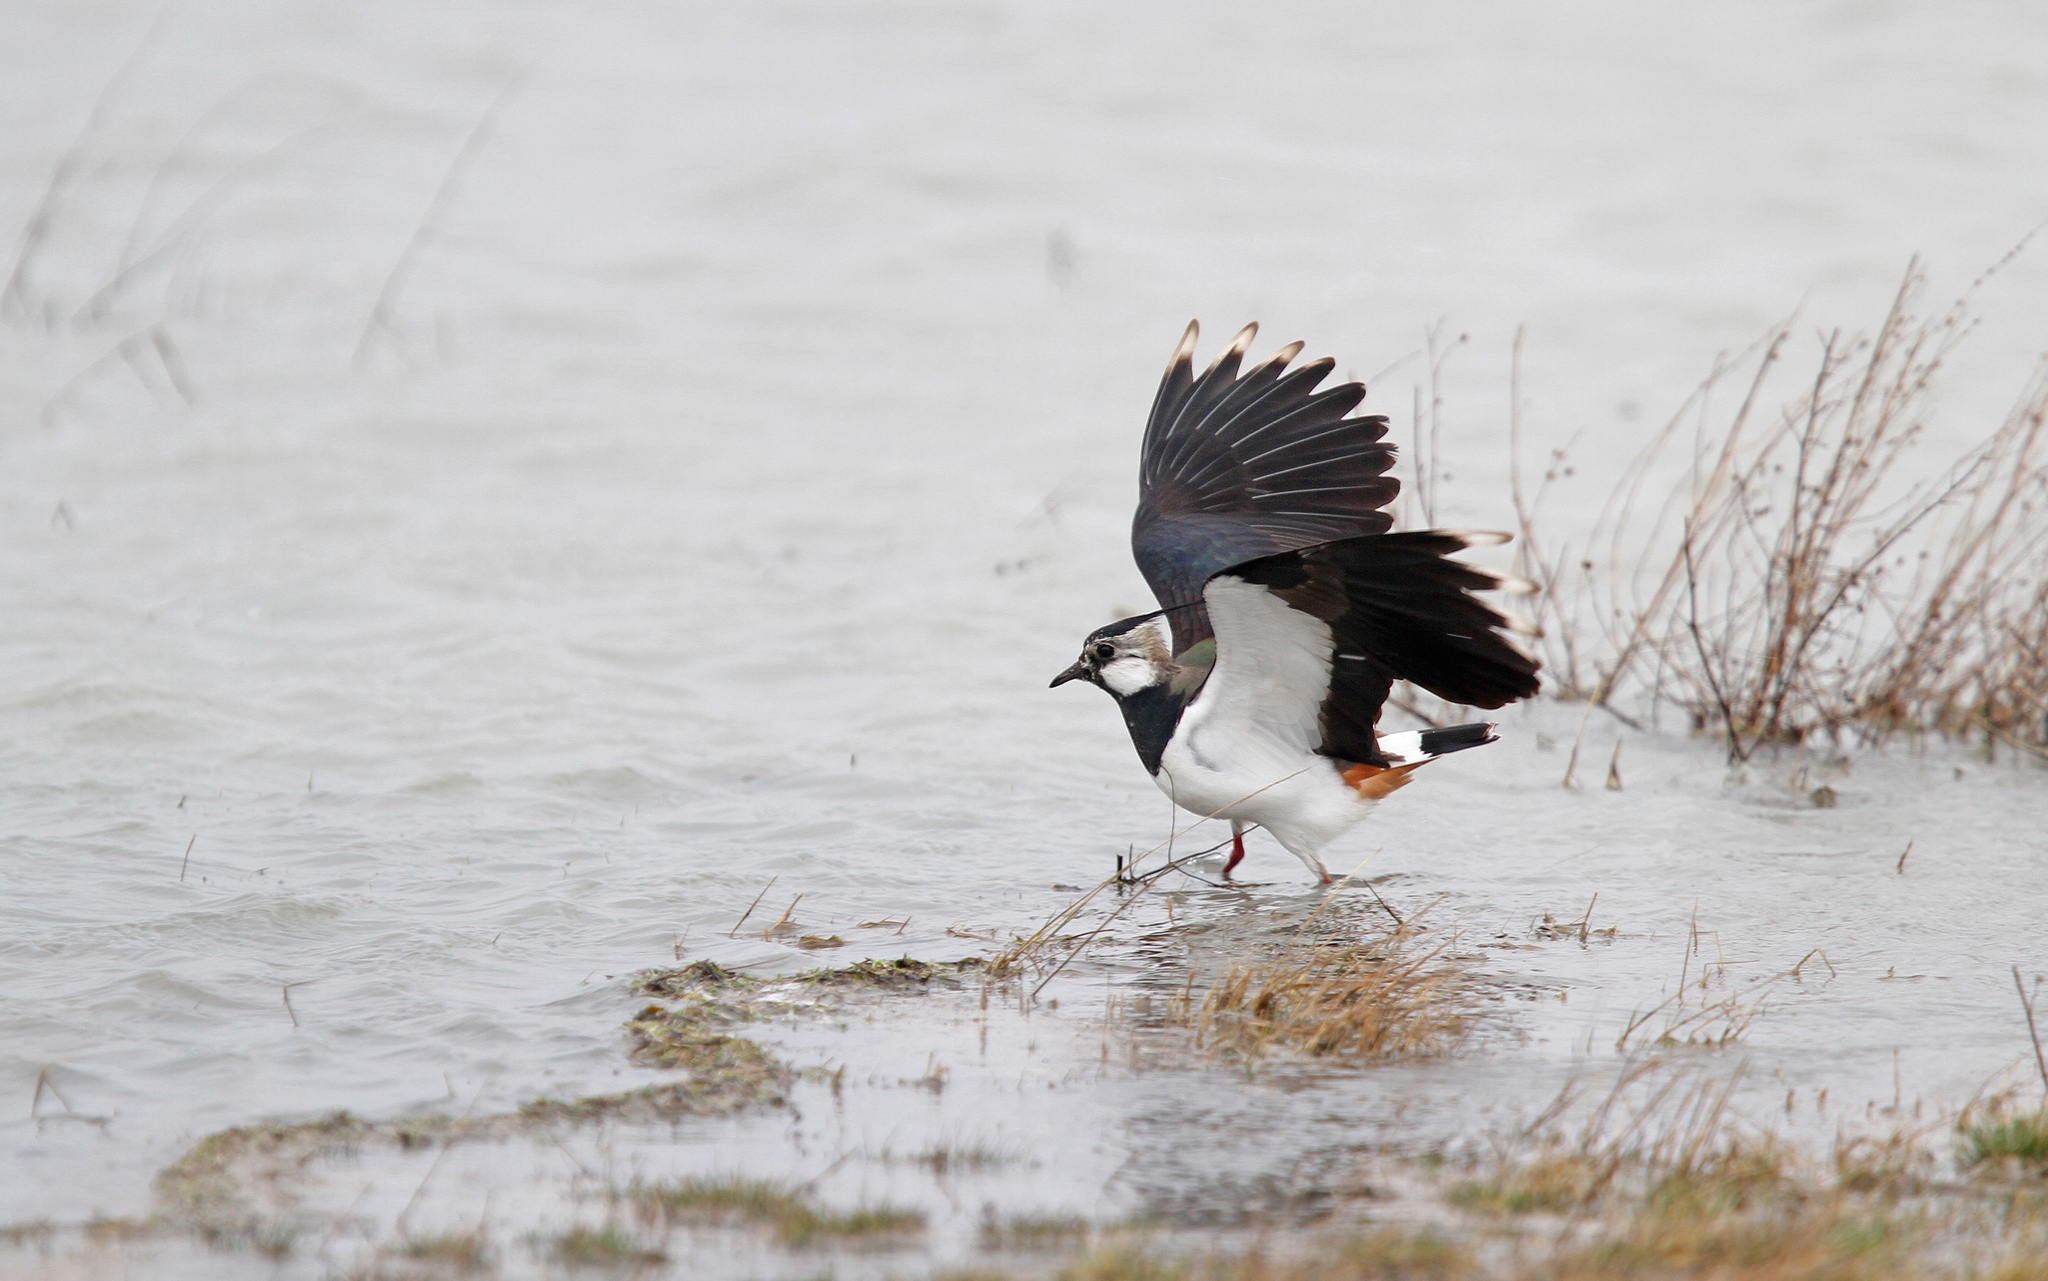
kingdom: Animalia
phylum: Chordata
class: Aves
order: Charadriiformes
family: Charadriidae
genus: Vanellus
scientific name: Vanellus vanellus
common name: Northern lapwing
